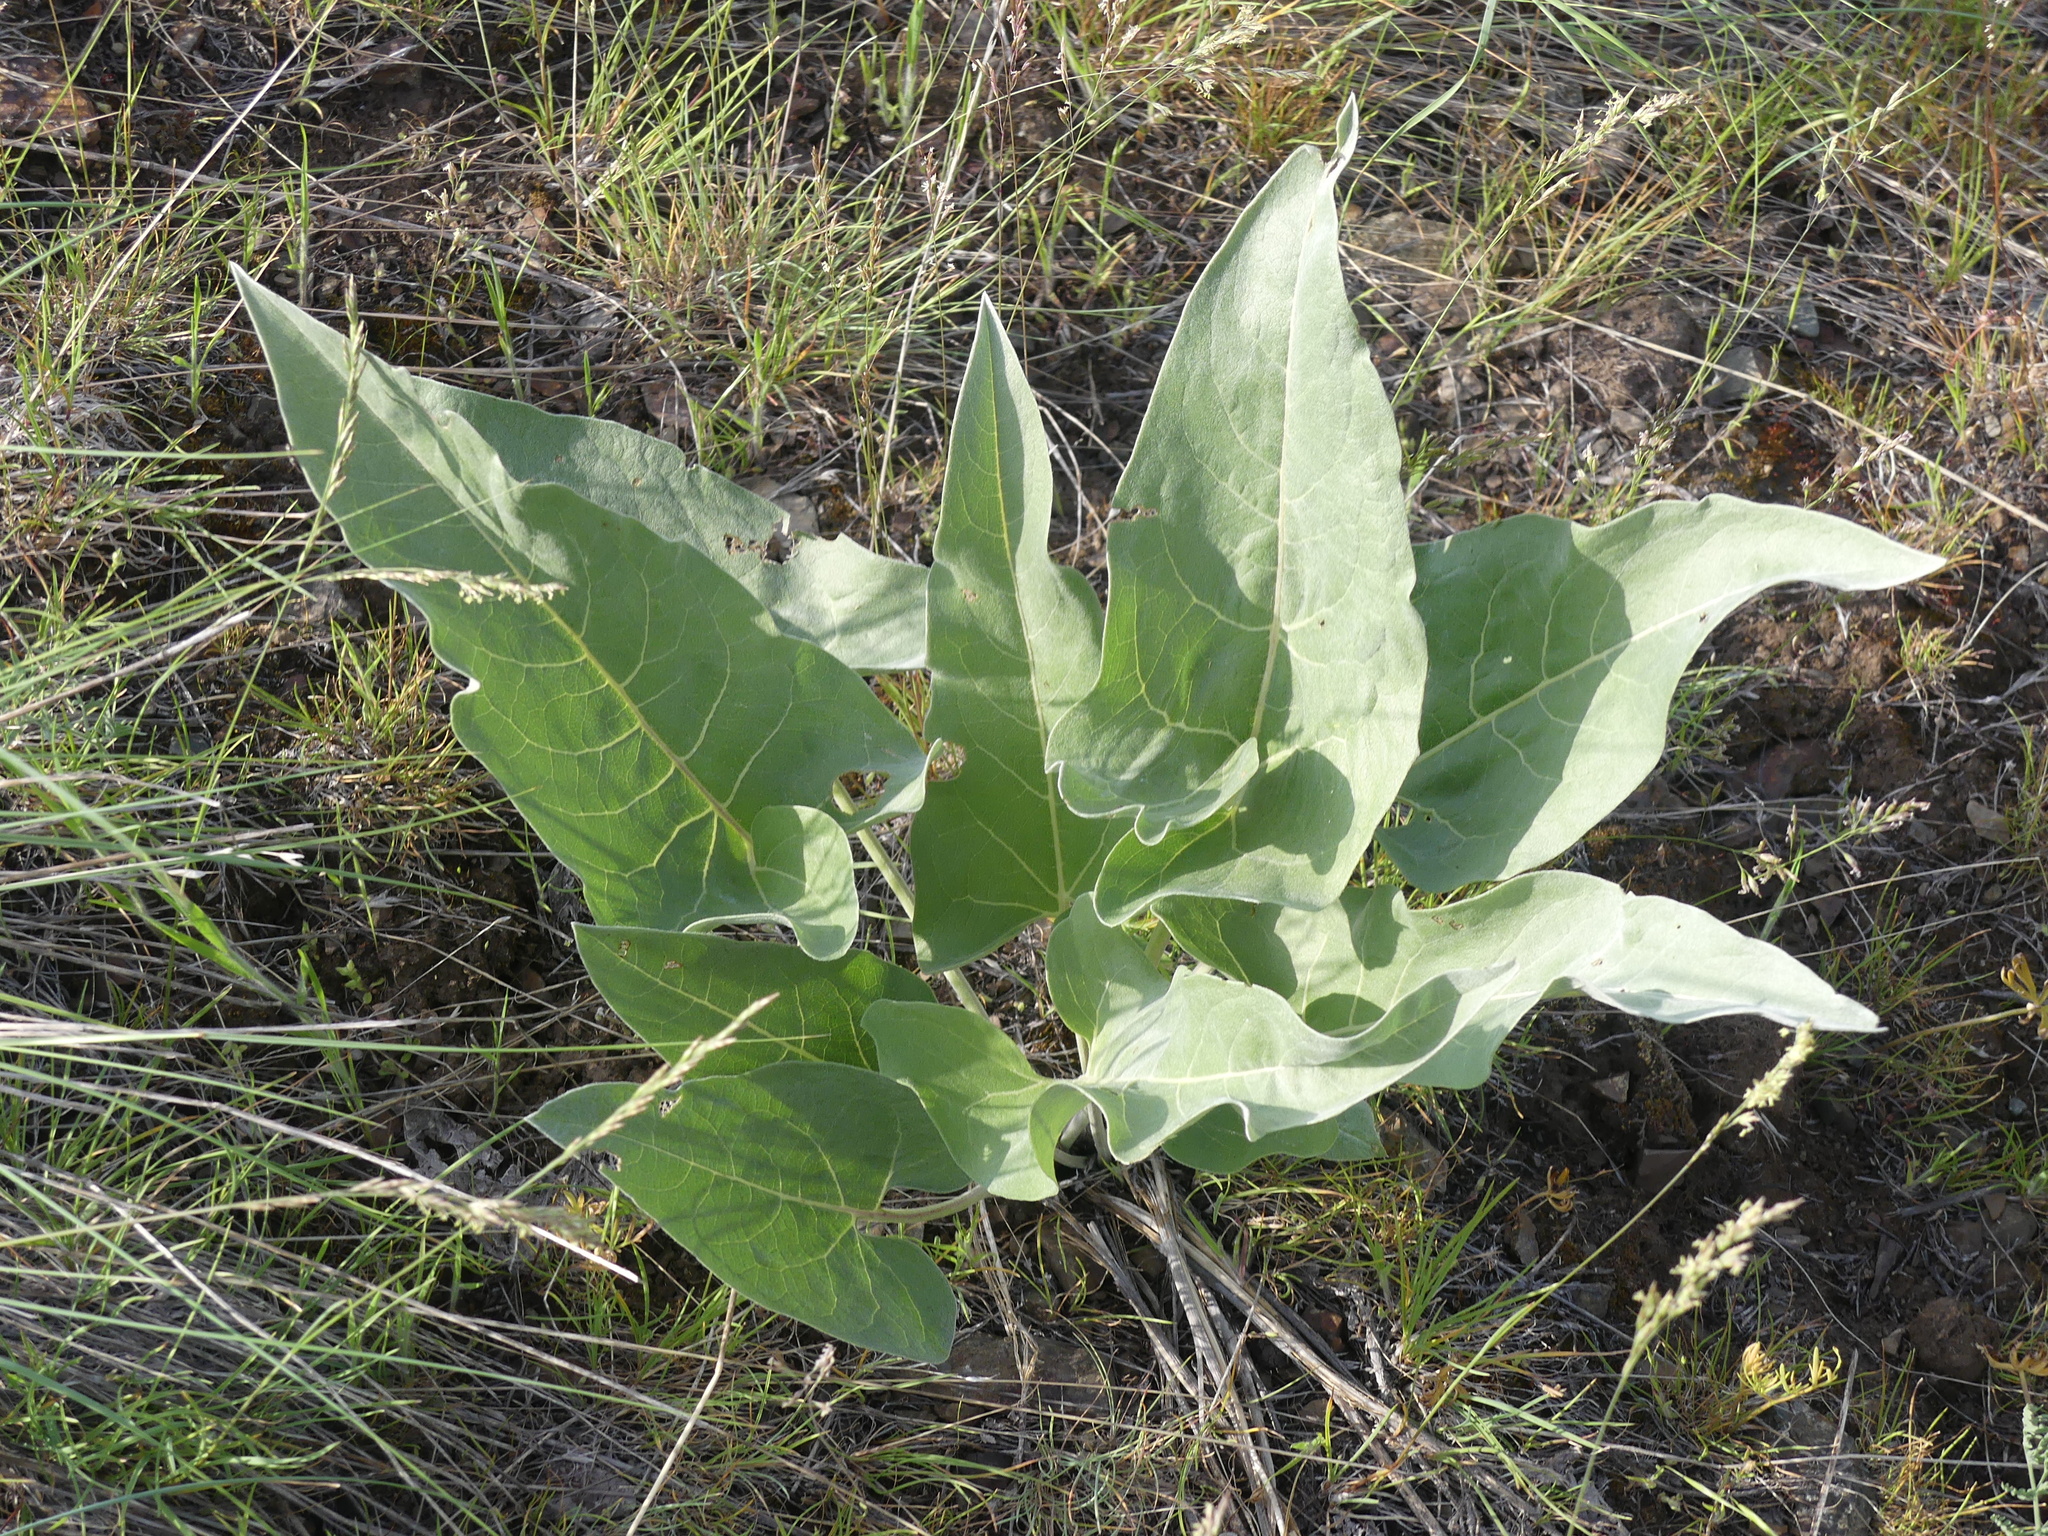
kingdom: Plantae
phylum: Tracheophyta
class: Magnoliopsida
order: Asterales
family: Asteraceae
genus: Wyethia
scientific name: Wyethia sagittata
